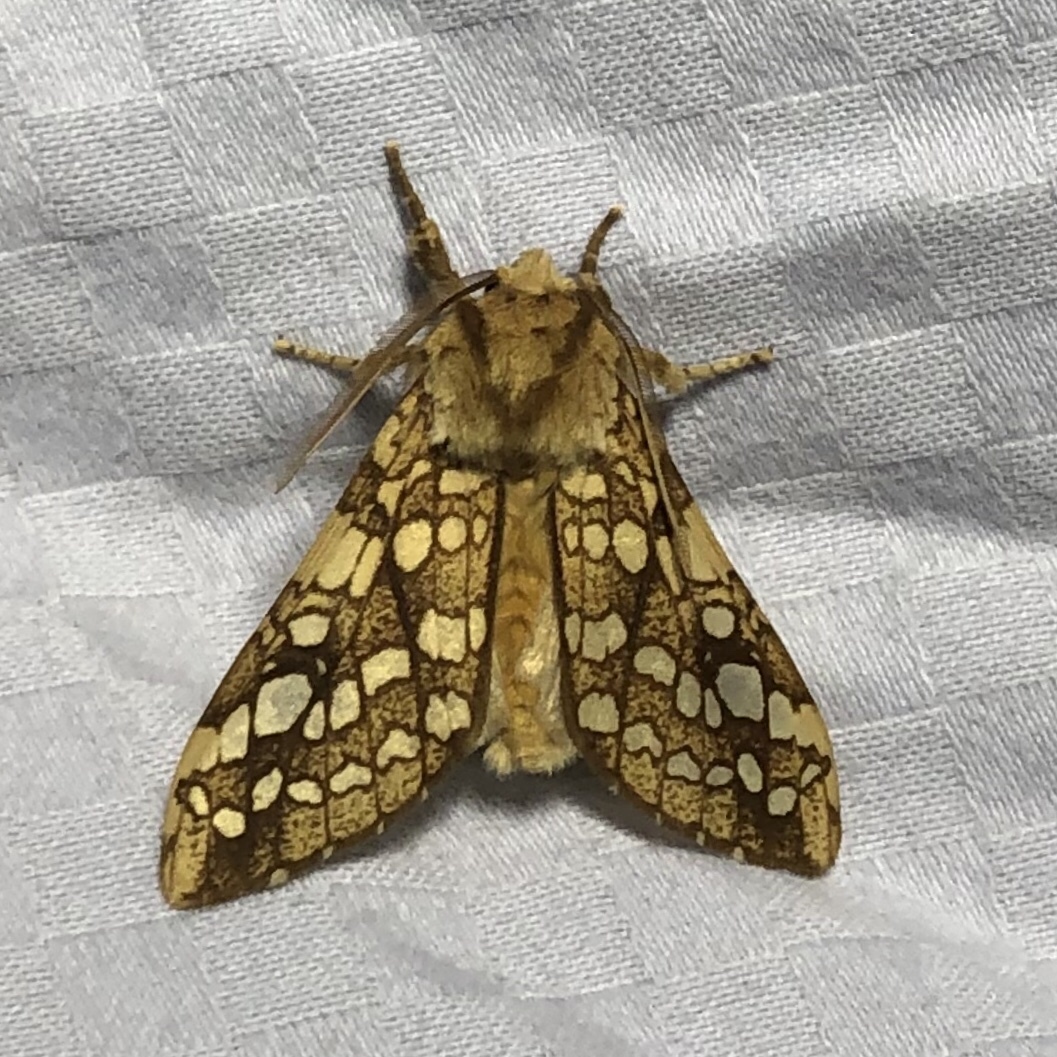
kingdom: Animalia
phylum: Arthropoda
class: Insecta
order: Lepidoptera
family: Erebidae
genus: Lophocampa
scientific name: Lophocampa caryae
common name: Hickory tussock moth
